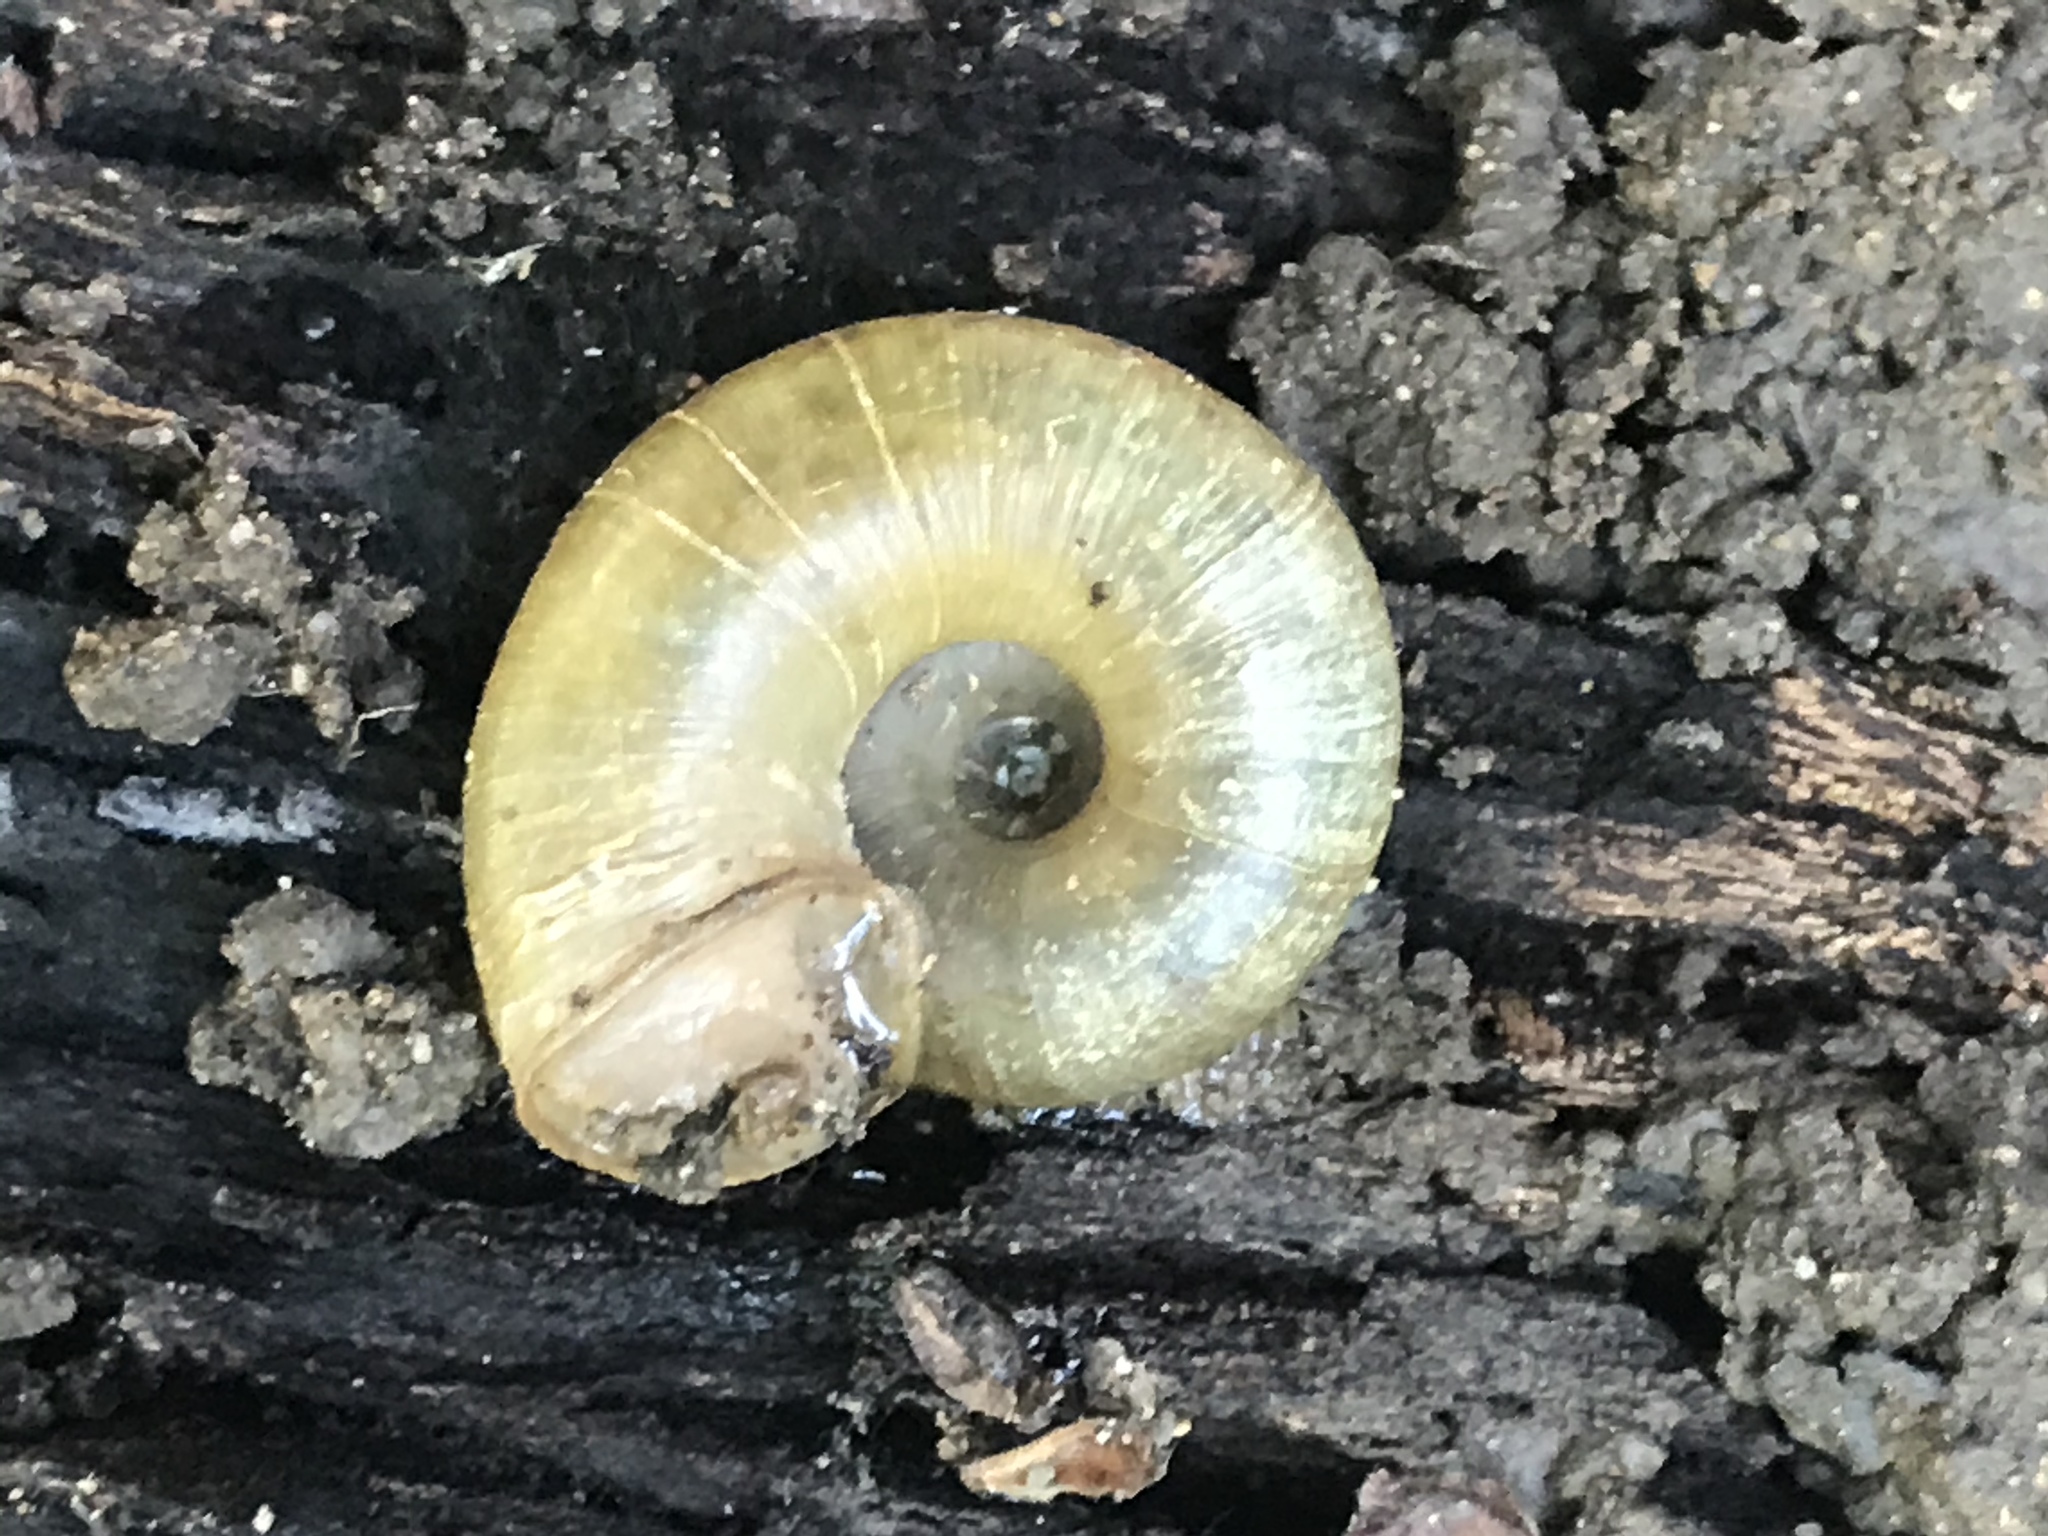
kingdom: Animalia
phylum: Mollusca
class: Gastropoda
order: Stylommatophora
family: Haplotrematidae
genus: Haplotrema
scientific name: Haplotrema minimum
